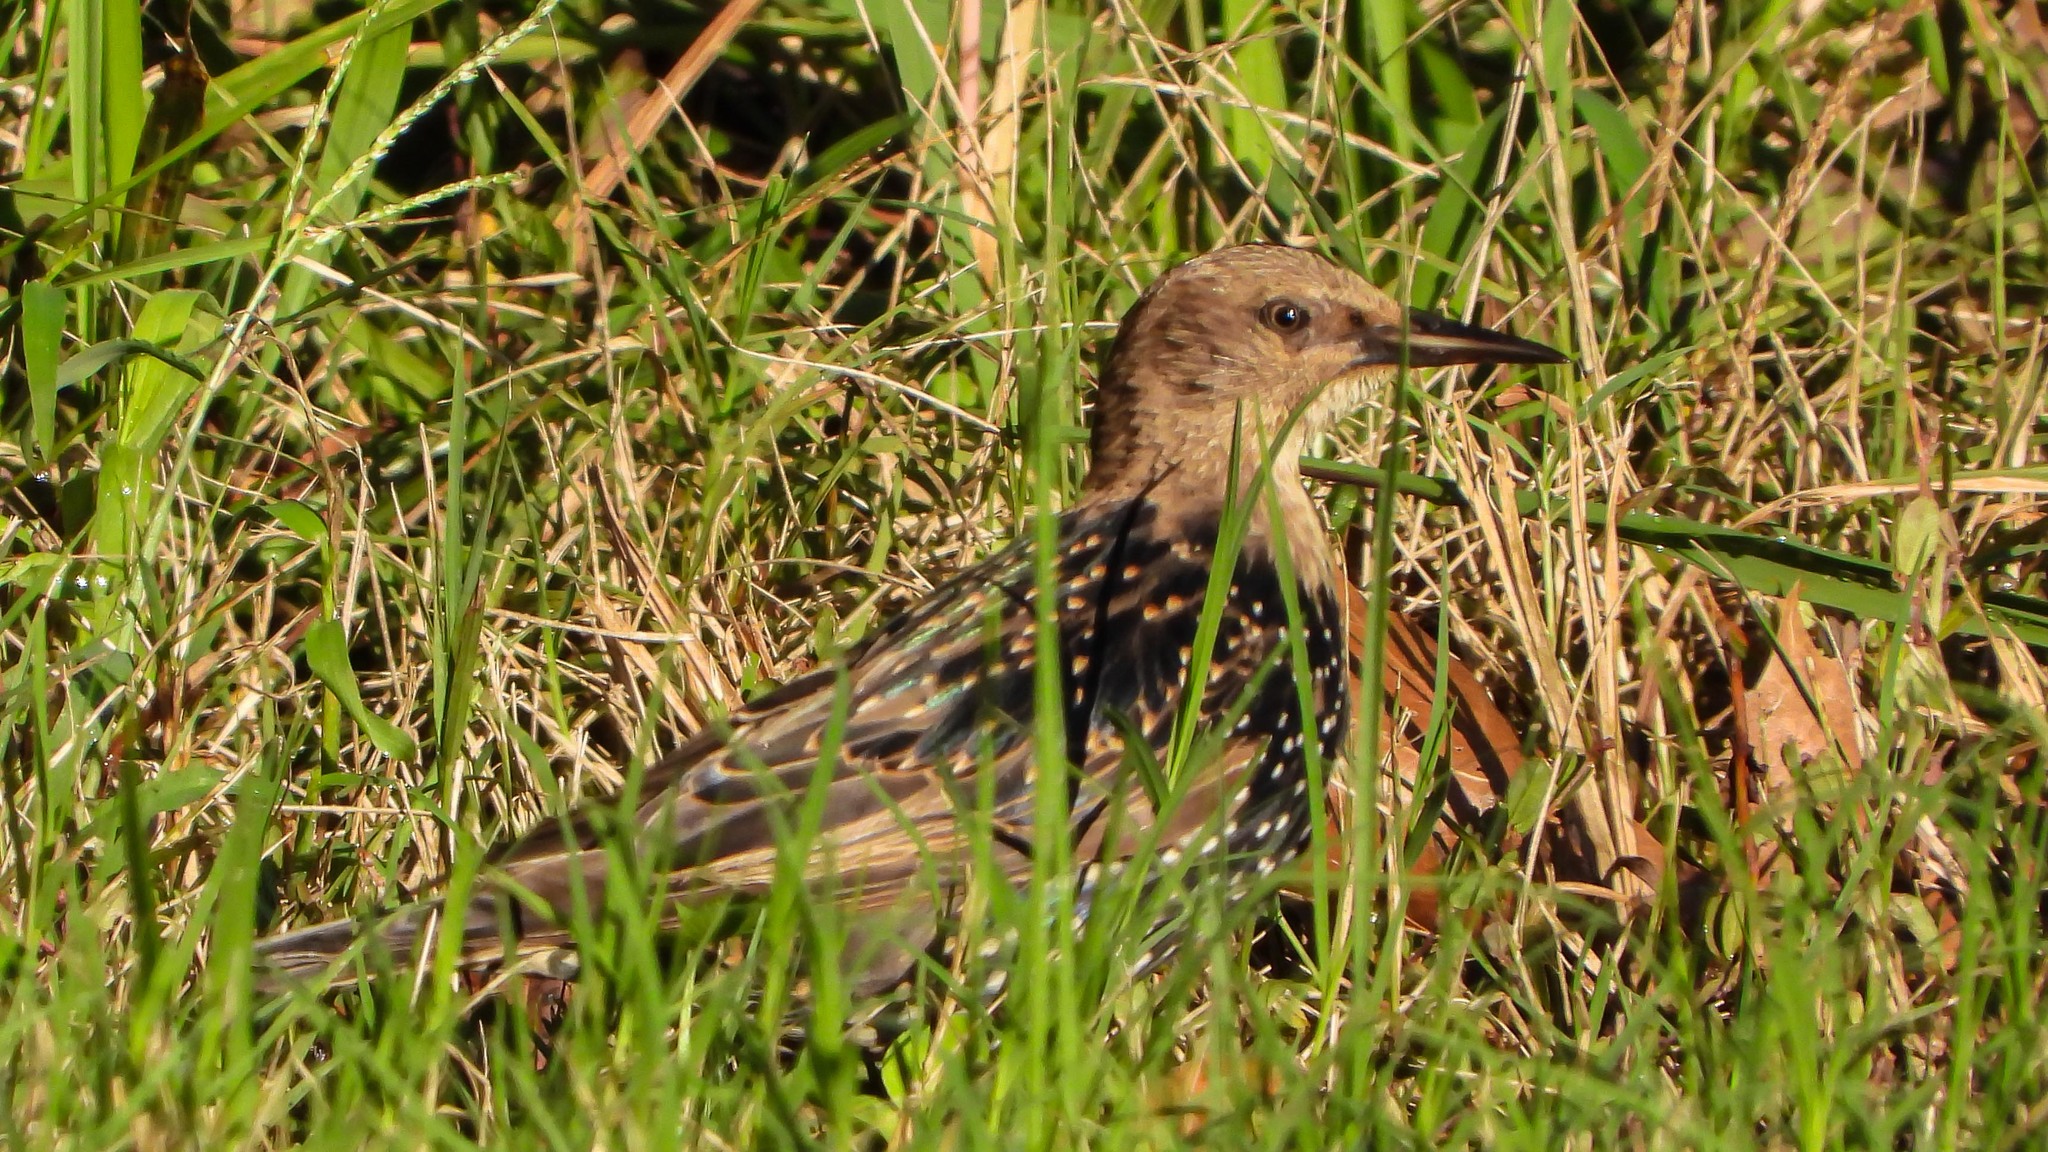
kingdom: Animalia
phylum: Chordata
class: Aves
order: Passeriformes
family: Sturnidae
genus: Sturnus
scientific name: Sturnus vulgaris
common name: Common starling
